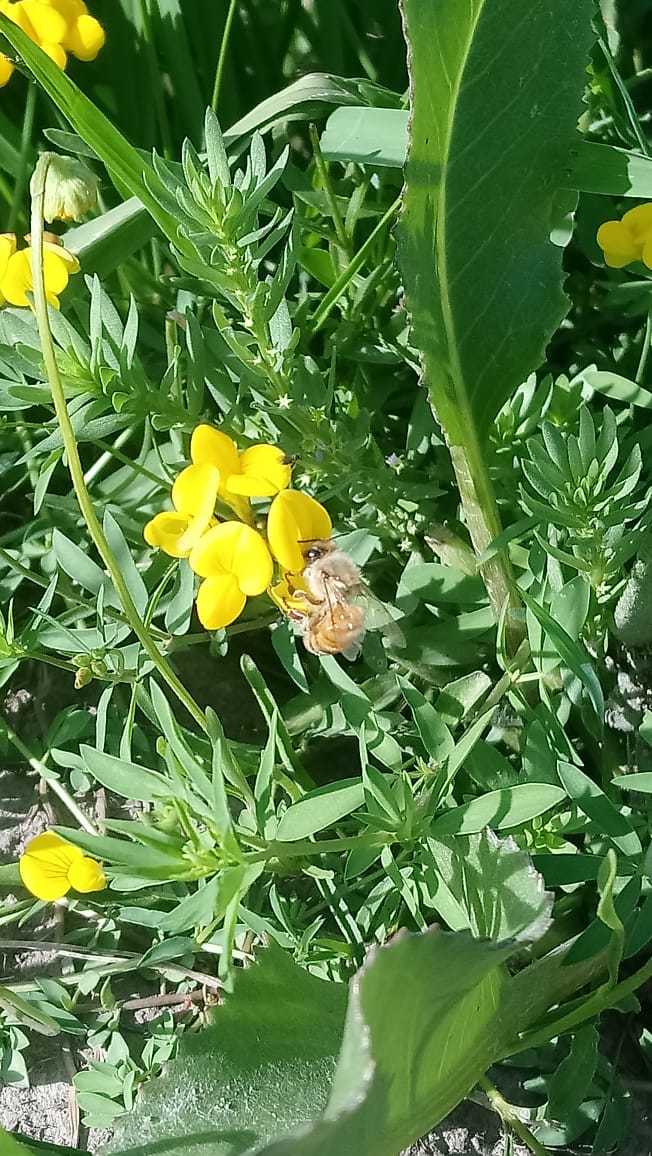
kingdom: Animalia
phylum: Arthropoda
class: Insecta
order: Hymenoptera
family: Apidae
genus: Apis
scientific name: Apis mellifera
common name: Honey bee
